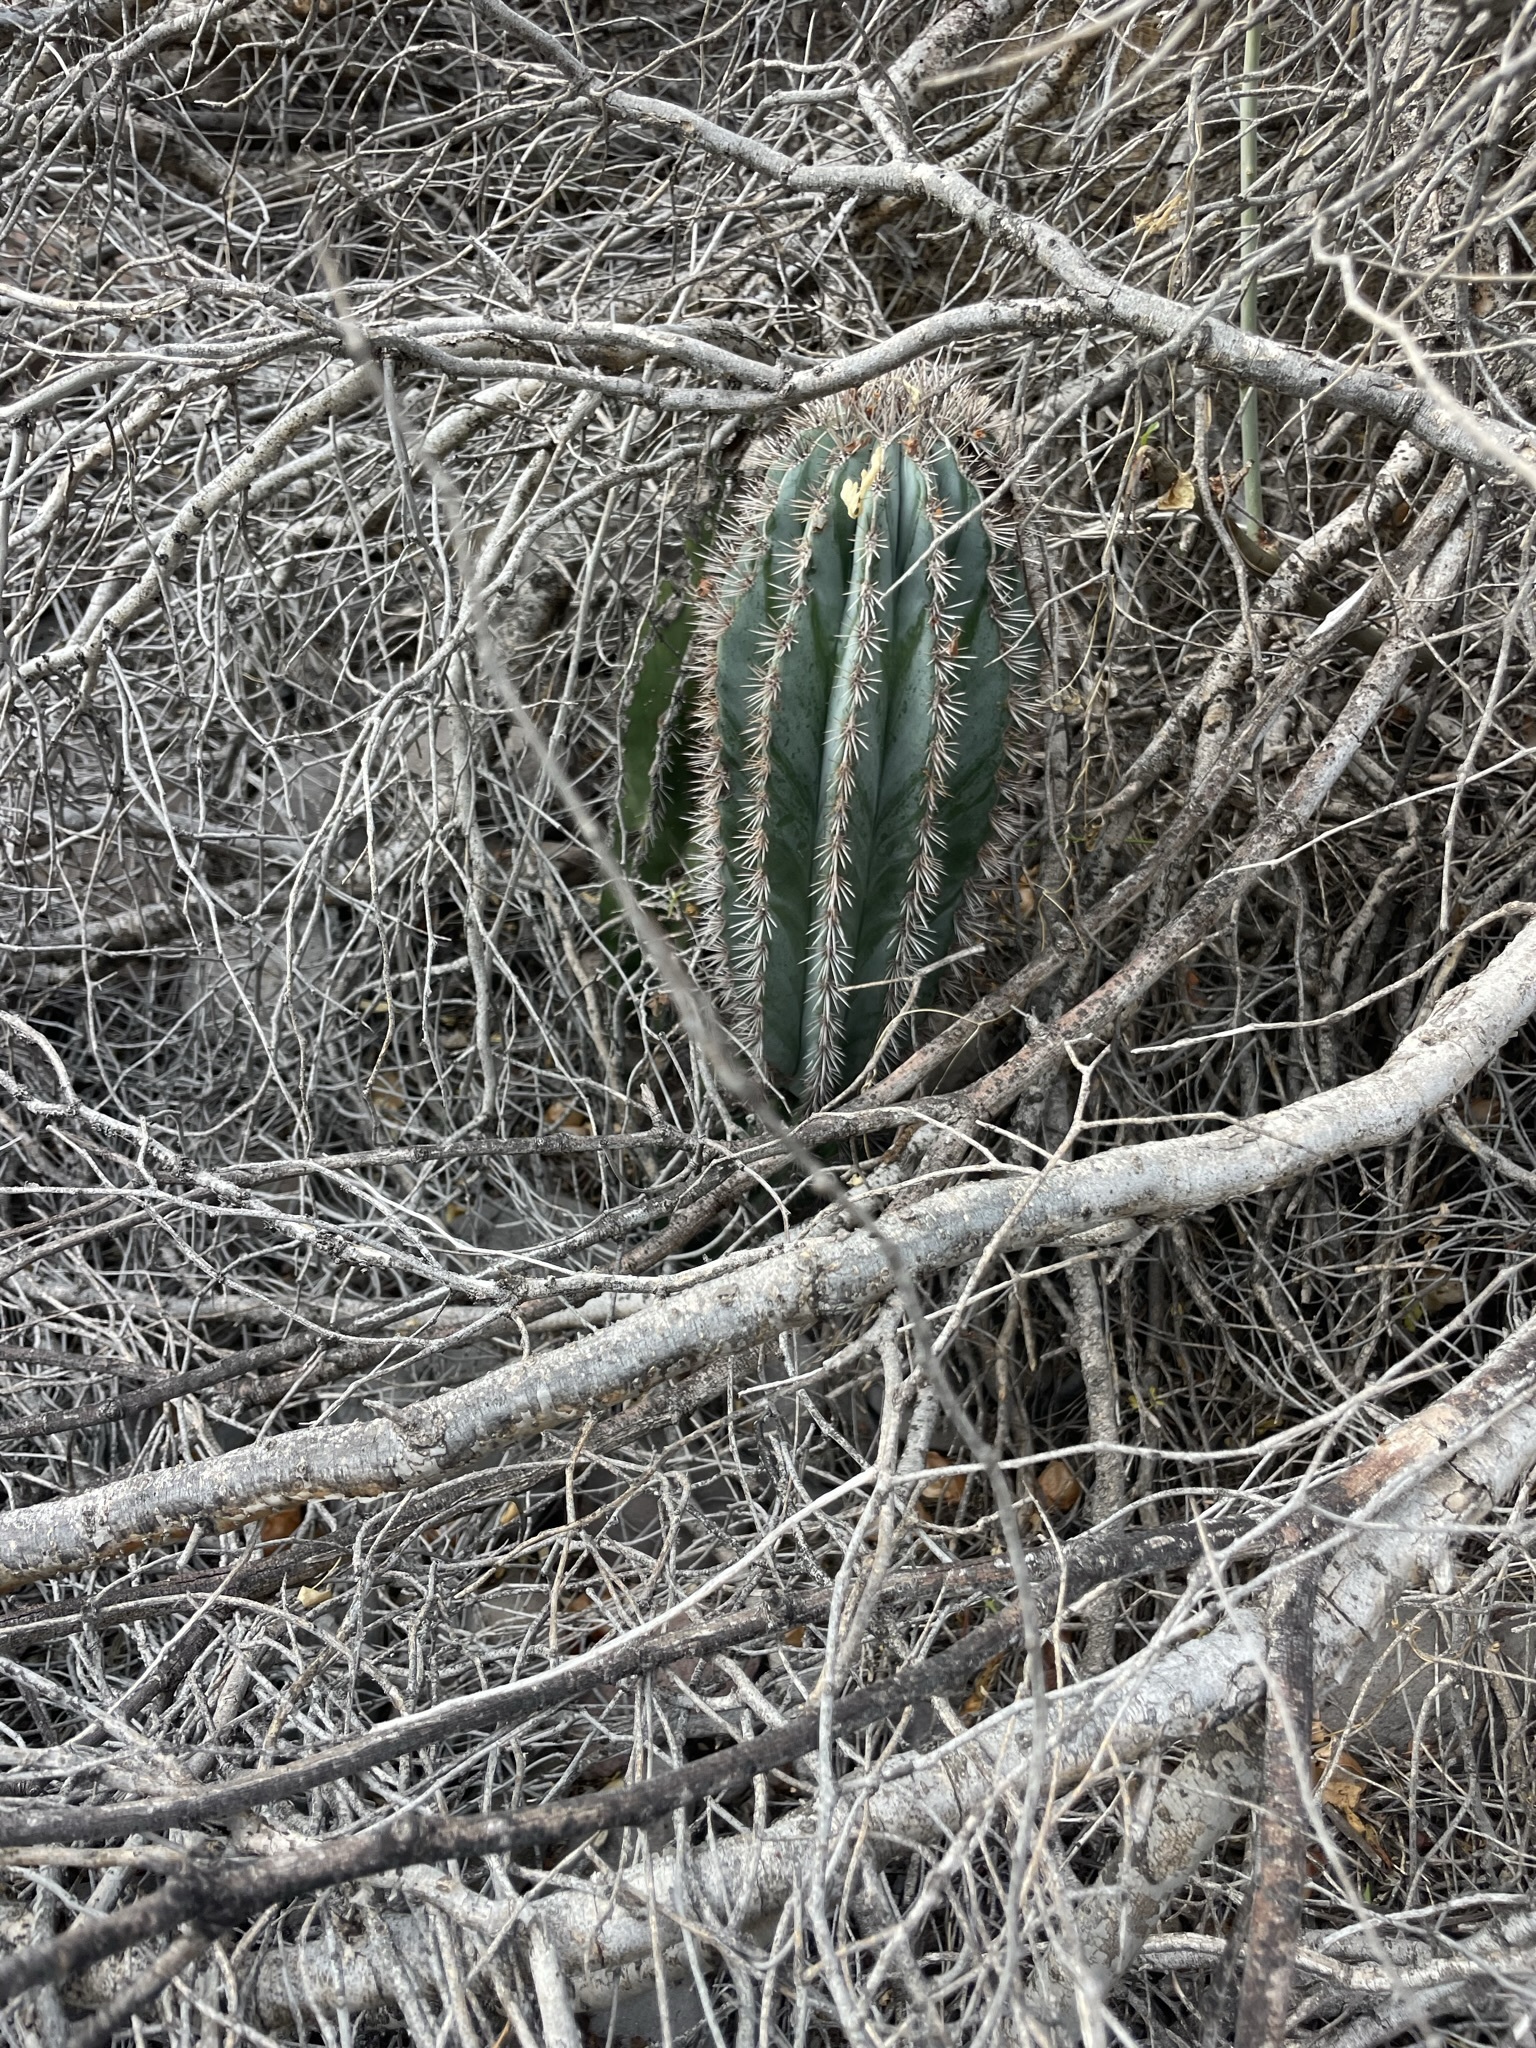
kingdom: Plantae
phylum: Tracheophyta
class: Magnoliopsida
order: Caryophyllales
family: Cactaceae
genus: Pachycereus
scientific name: Pachycereus pringlei
